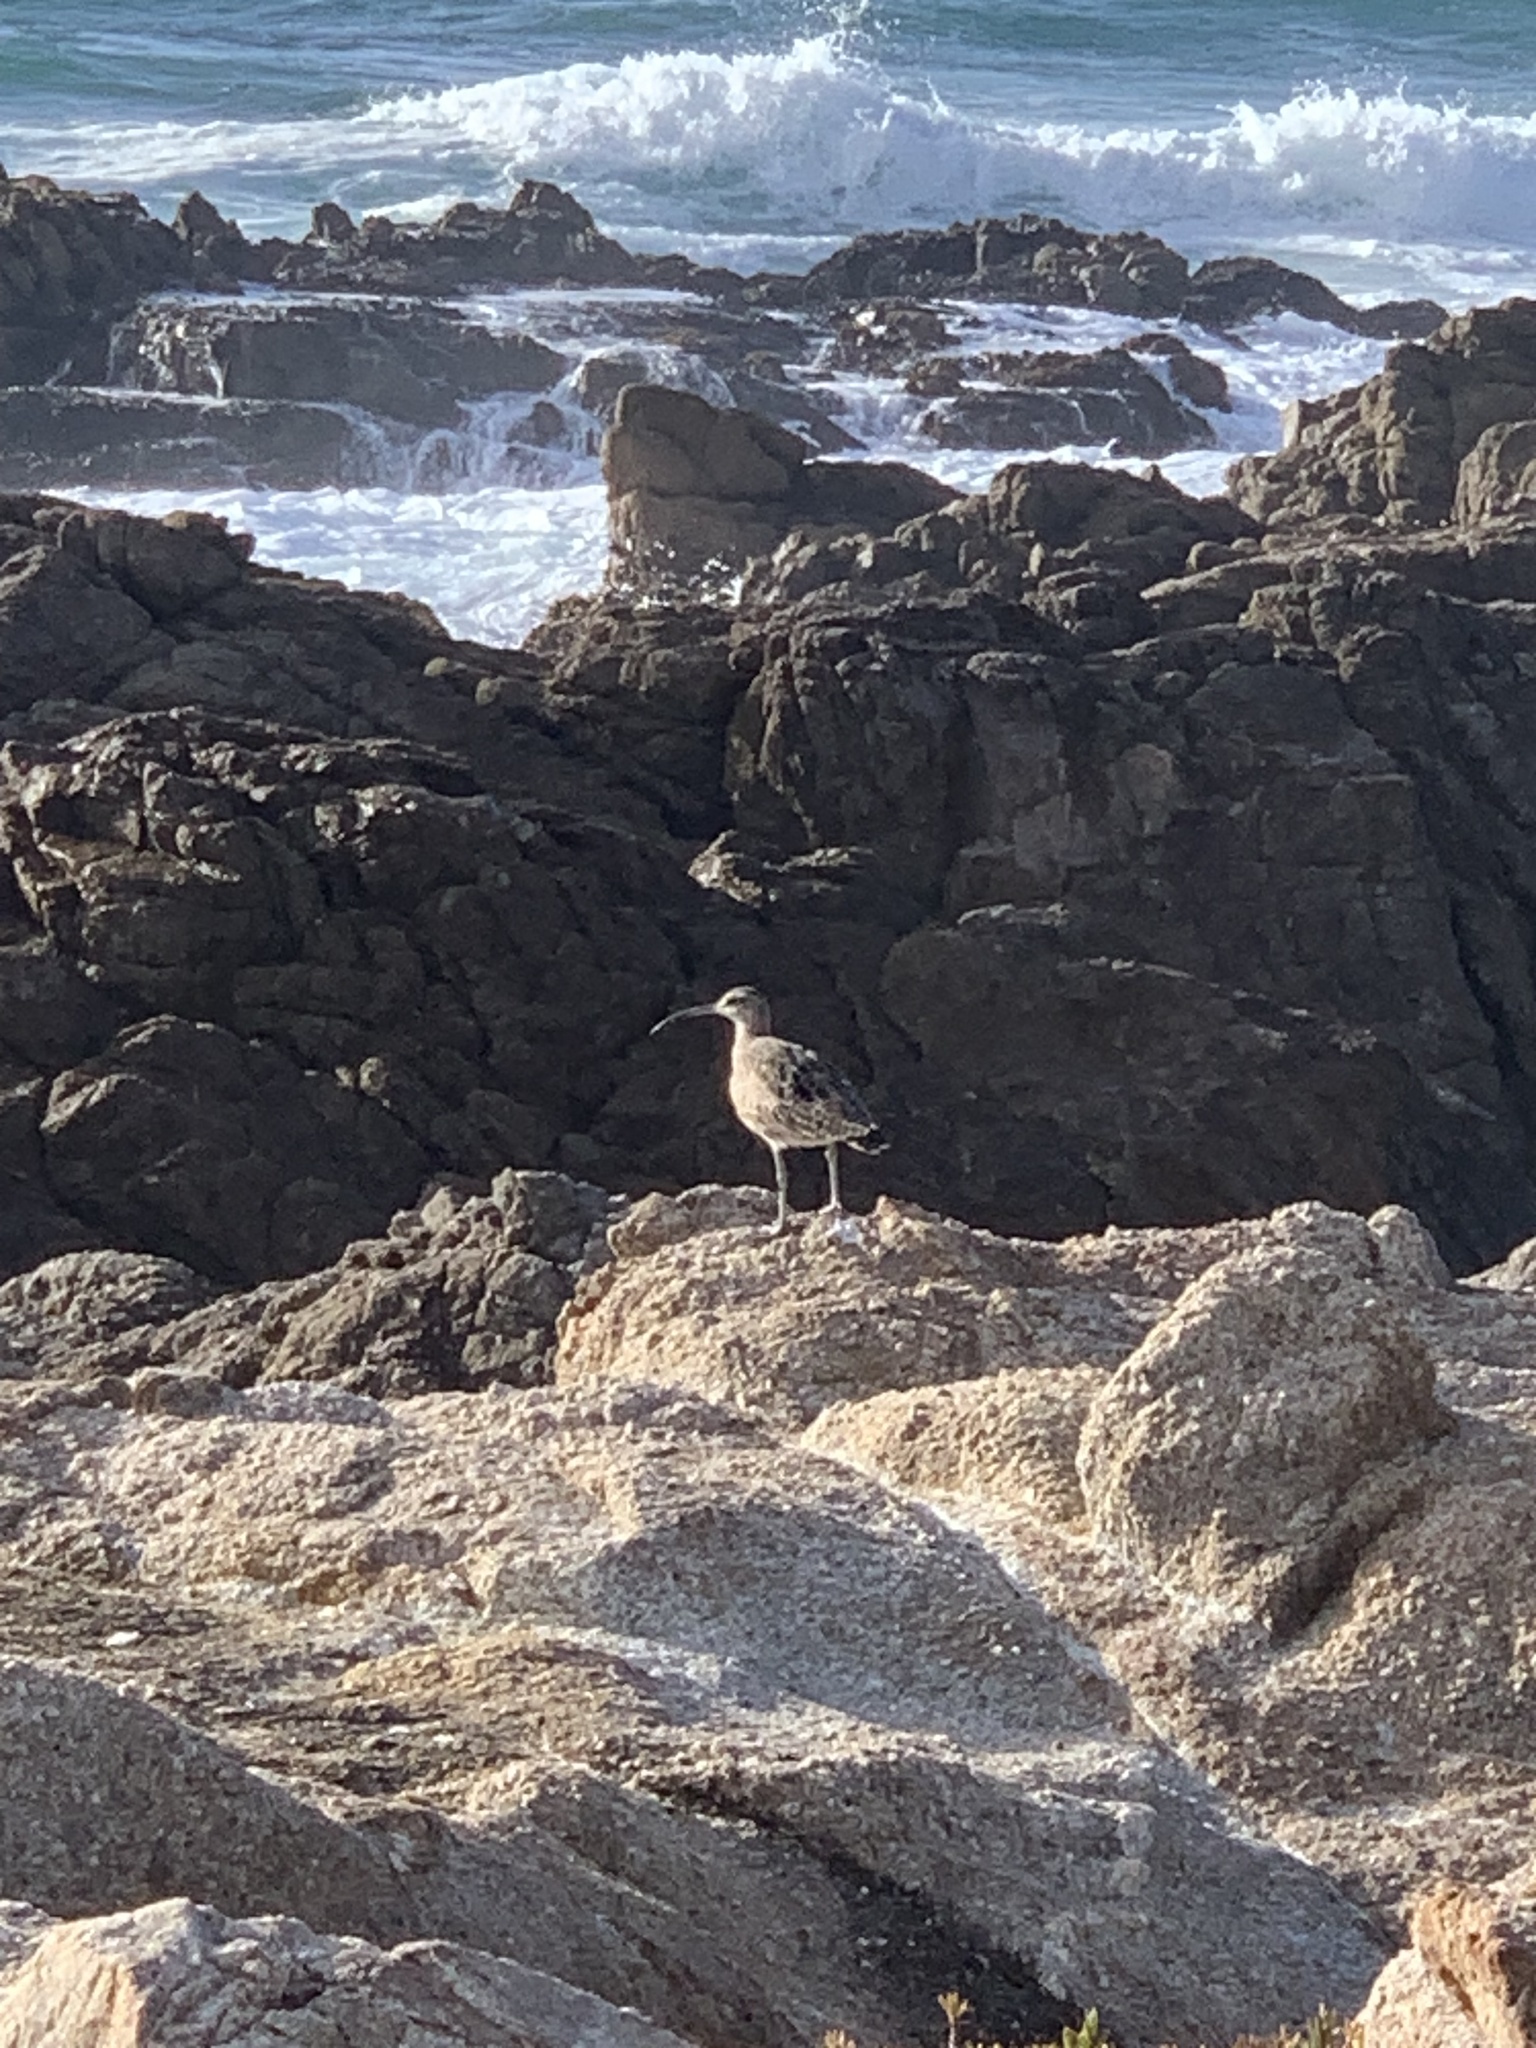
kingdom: Animalia
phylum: Chordata
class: Aves
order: Charadriiformes
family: Scolopacidae
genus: Numenius
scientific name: Numenius phaeopus
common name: Whimbrel
